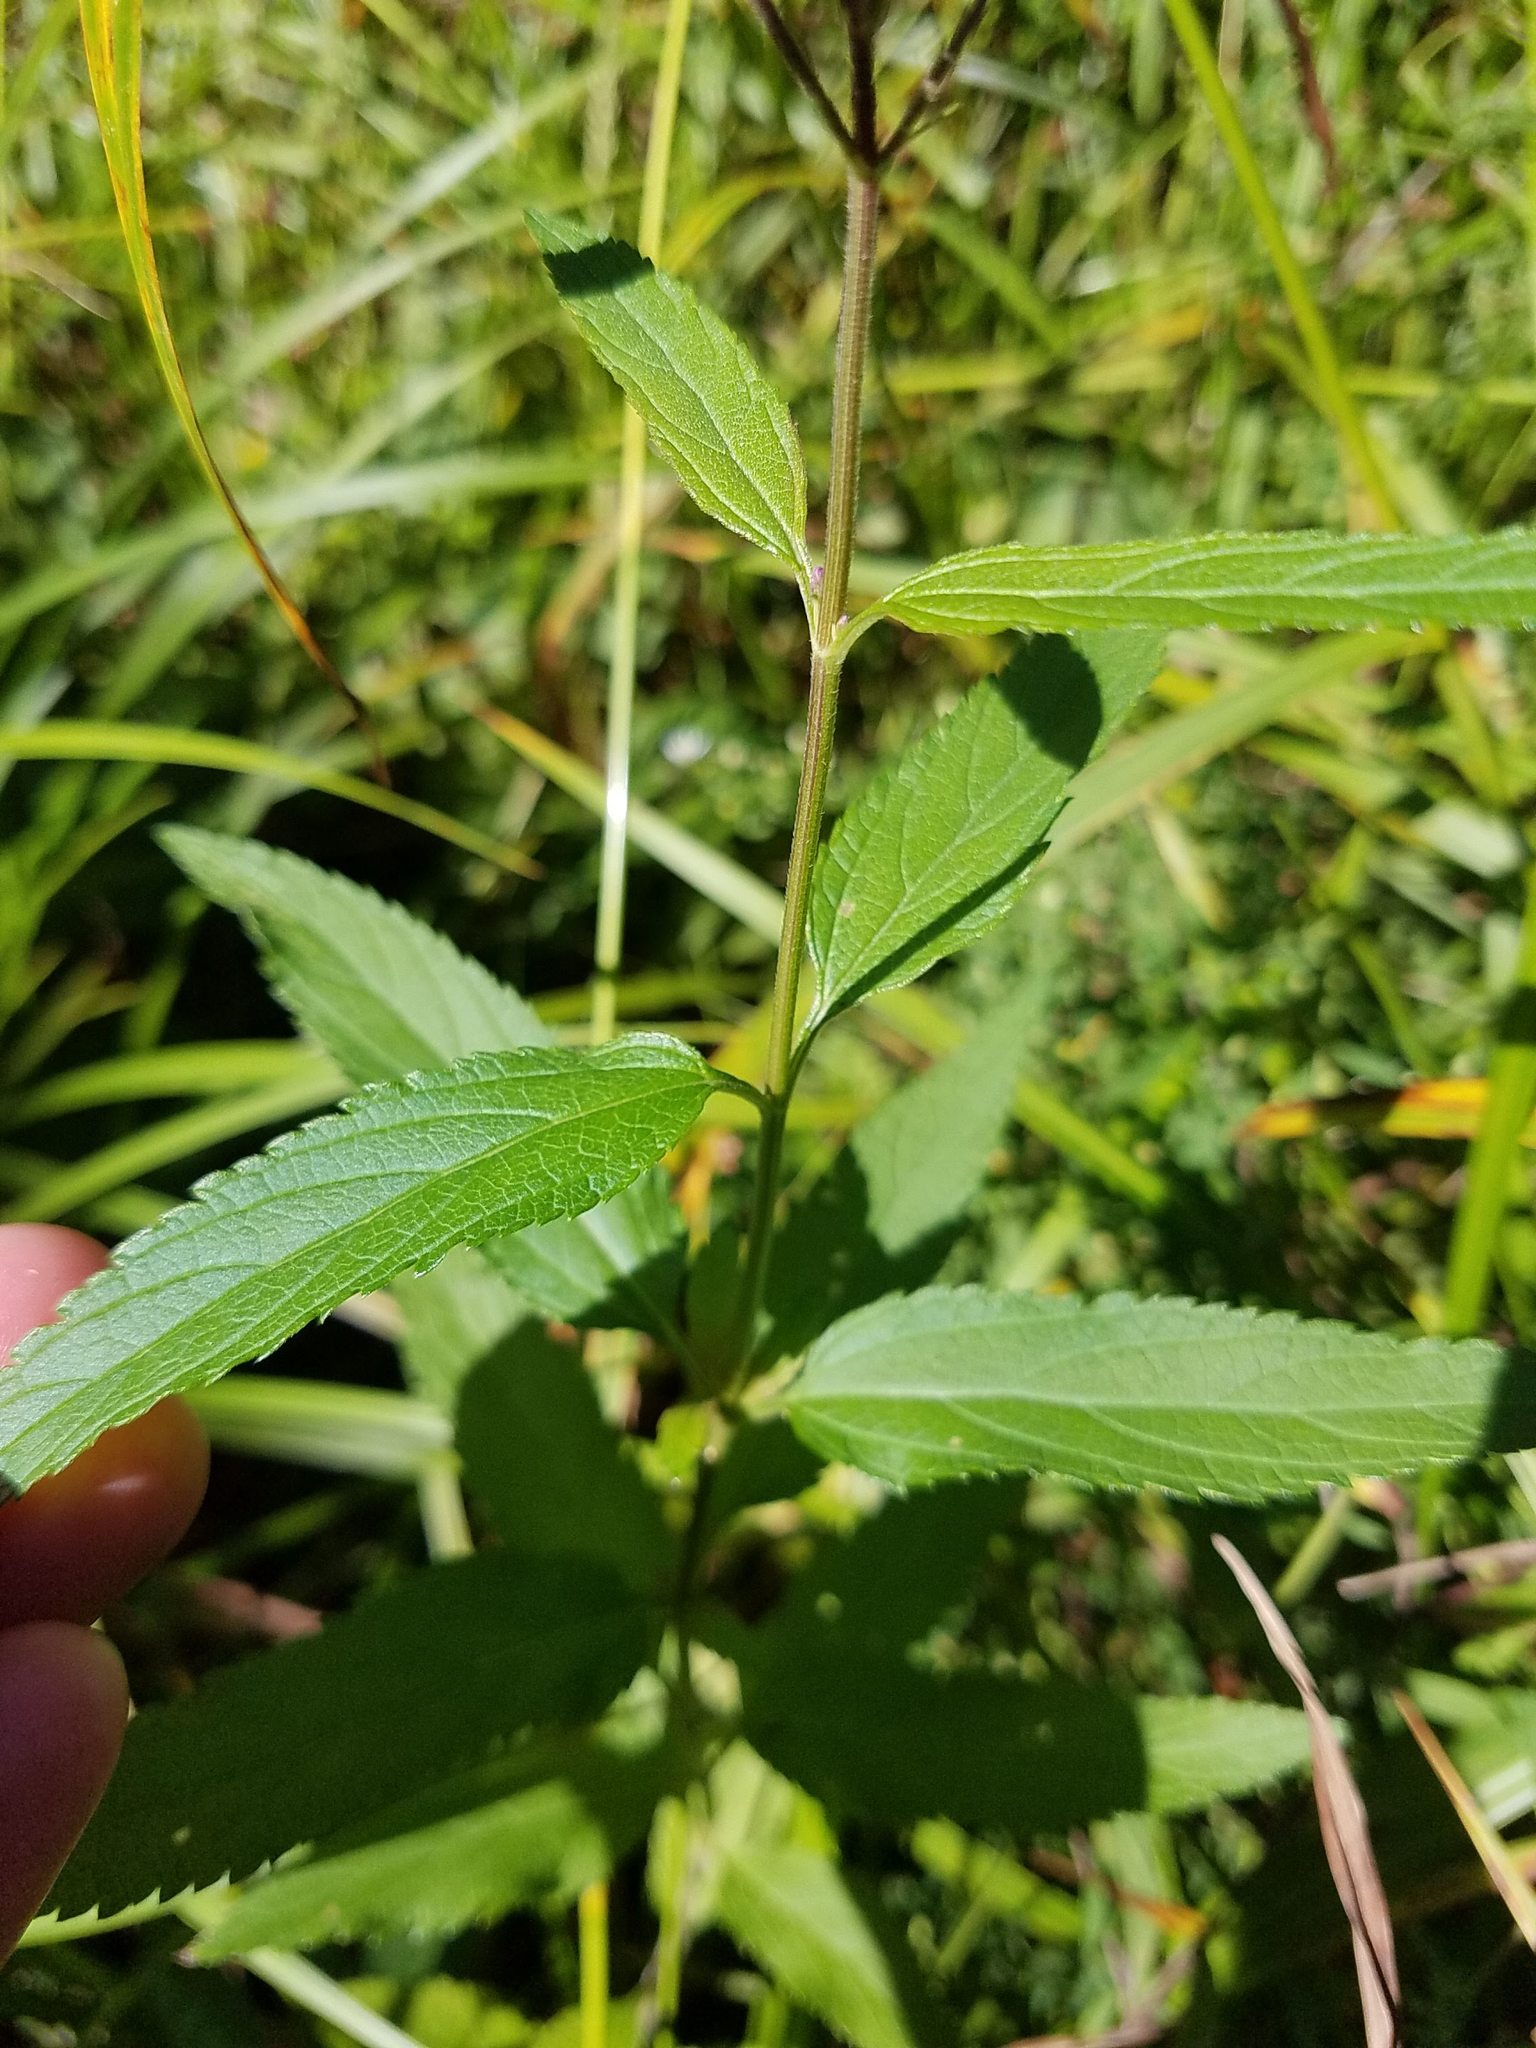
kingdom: Plantae
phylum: Tracheophyta
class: Magnoliopsida
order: Lamiales
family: Verbenaceae
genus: Verbena
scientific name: Verbena hastata
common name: American blue vervain
